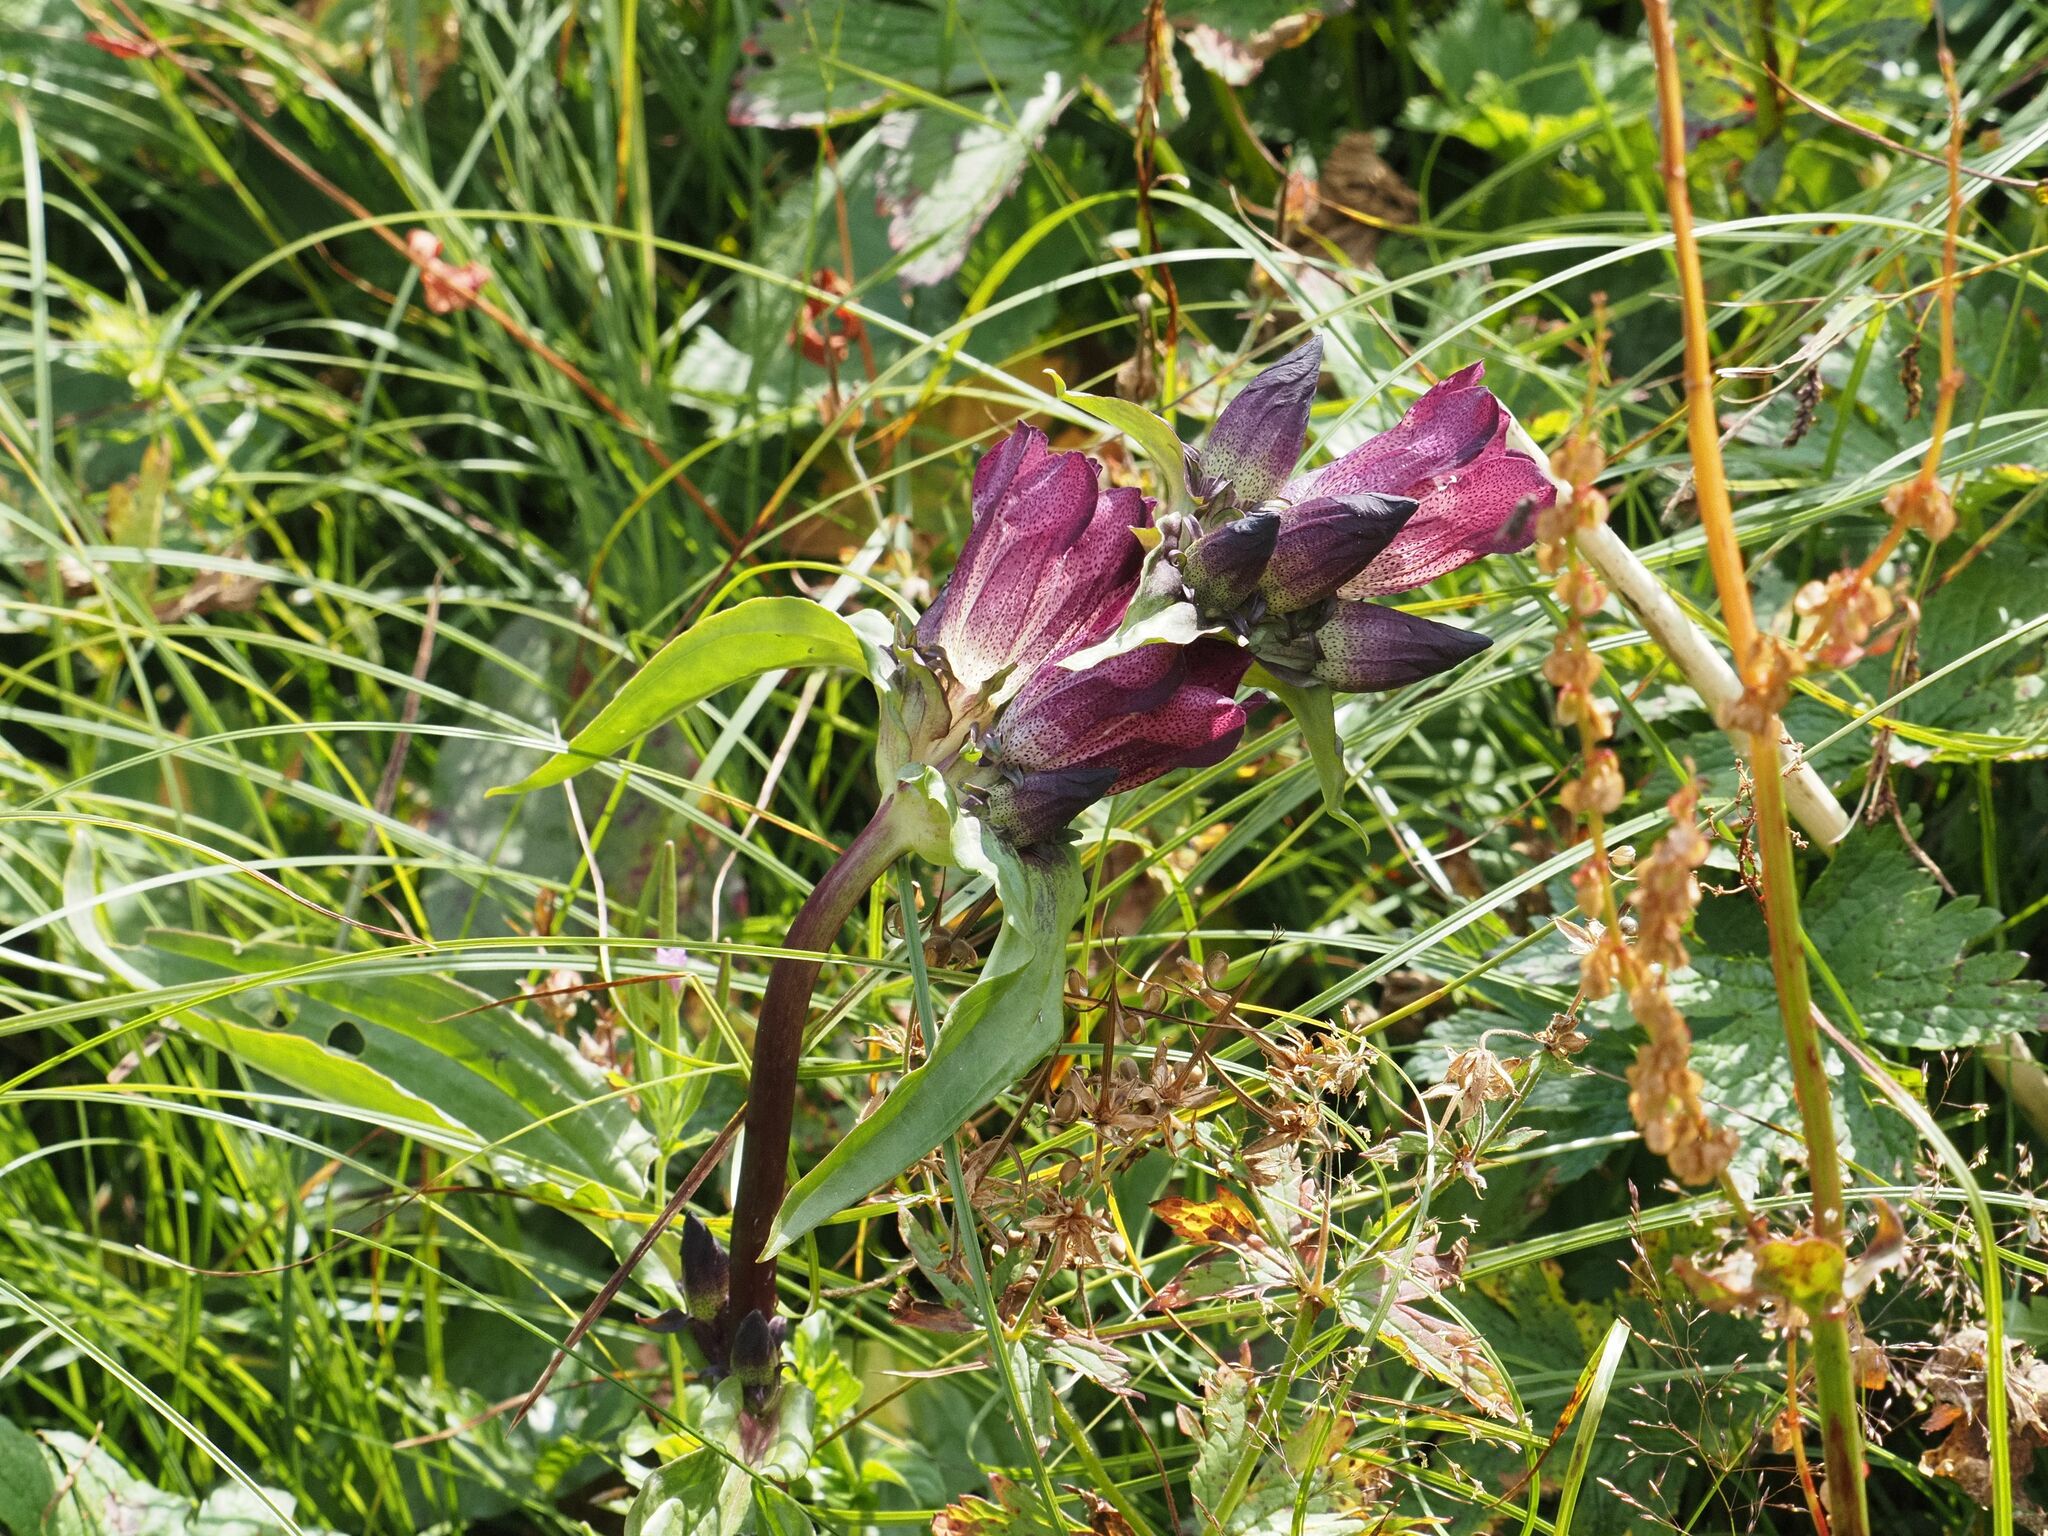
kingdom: Plantae
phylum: Tracheophyta
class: Magnoliopsida
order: Gentianales
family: Gentianaceae
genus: Gentiana
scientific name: Gentiana pannonica
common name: Hungarian gentian
